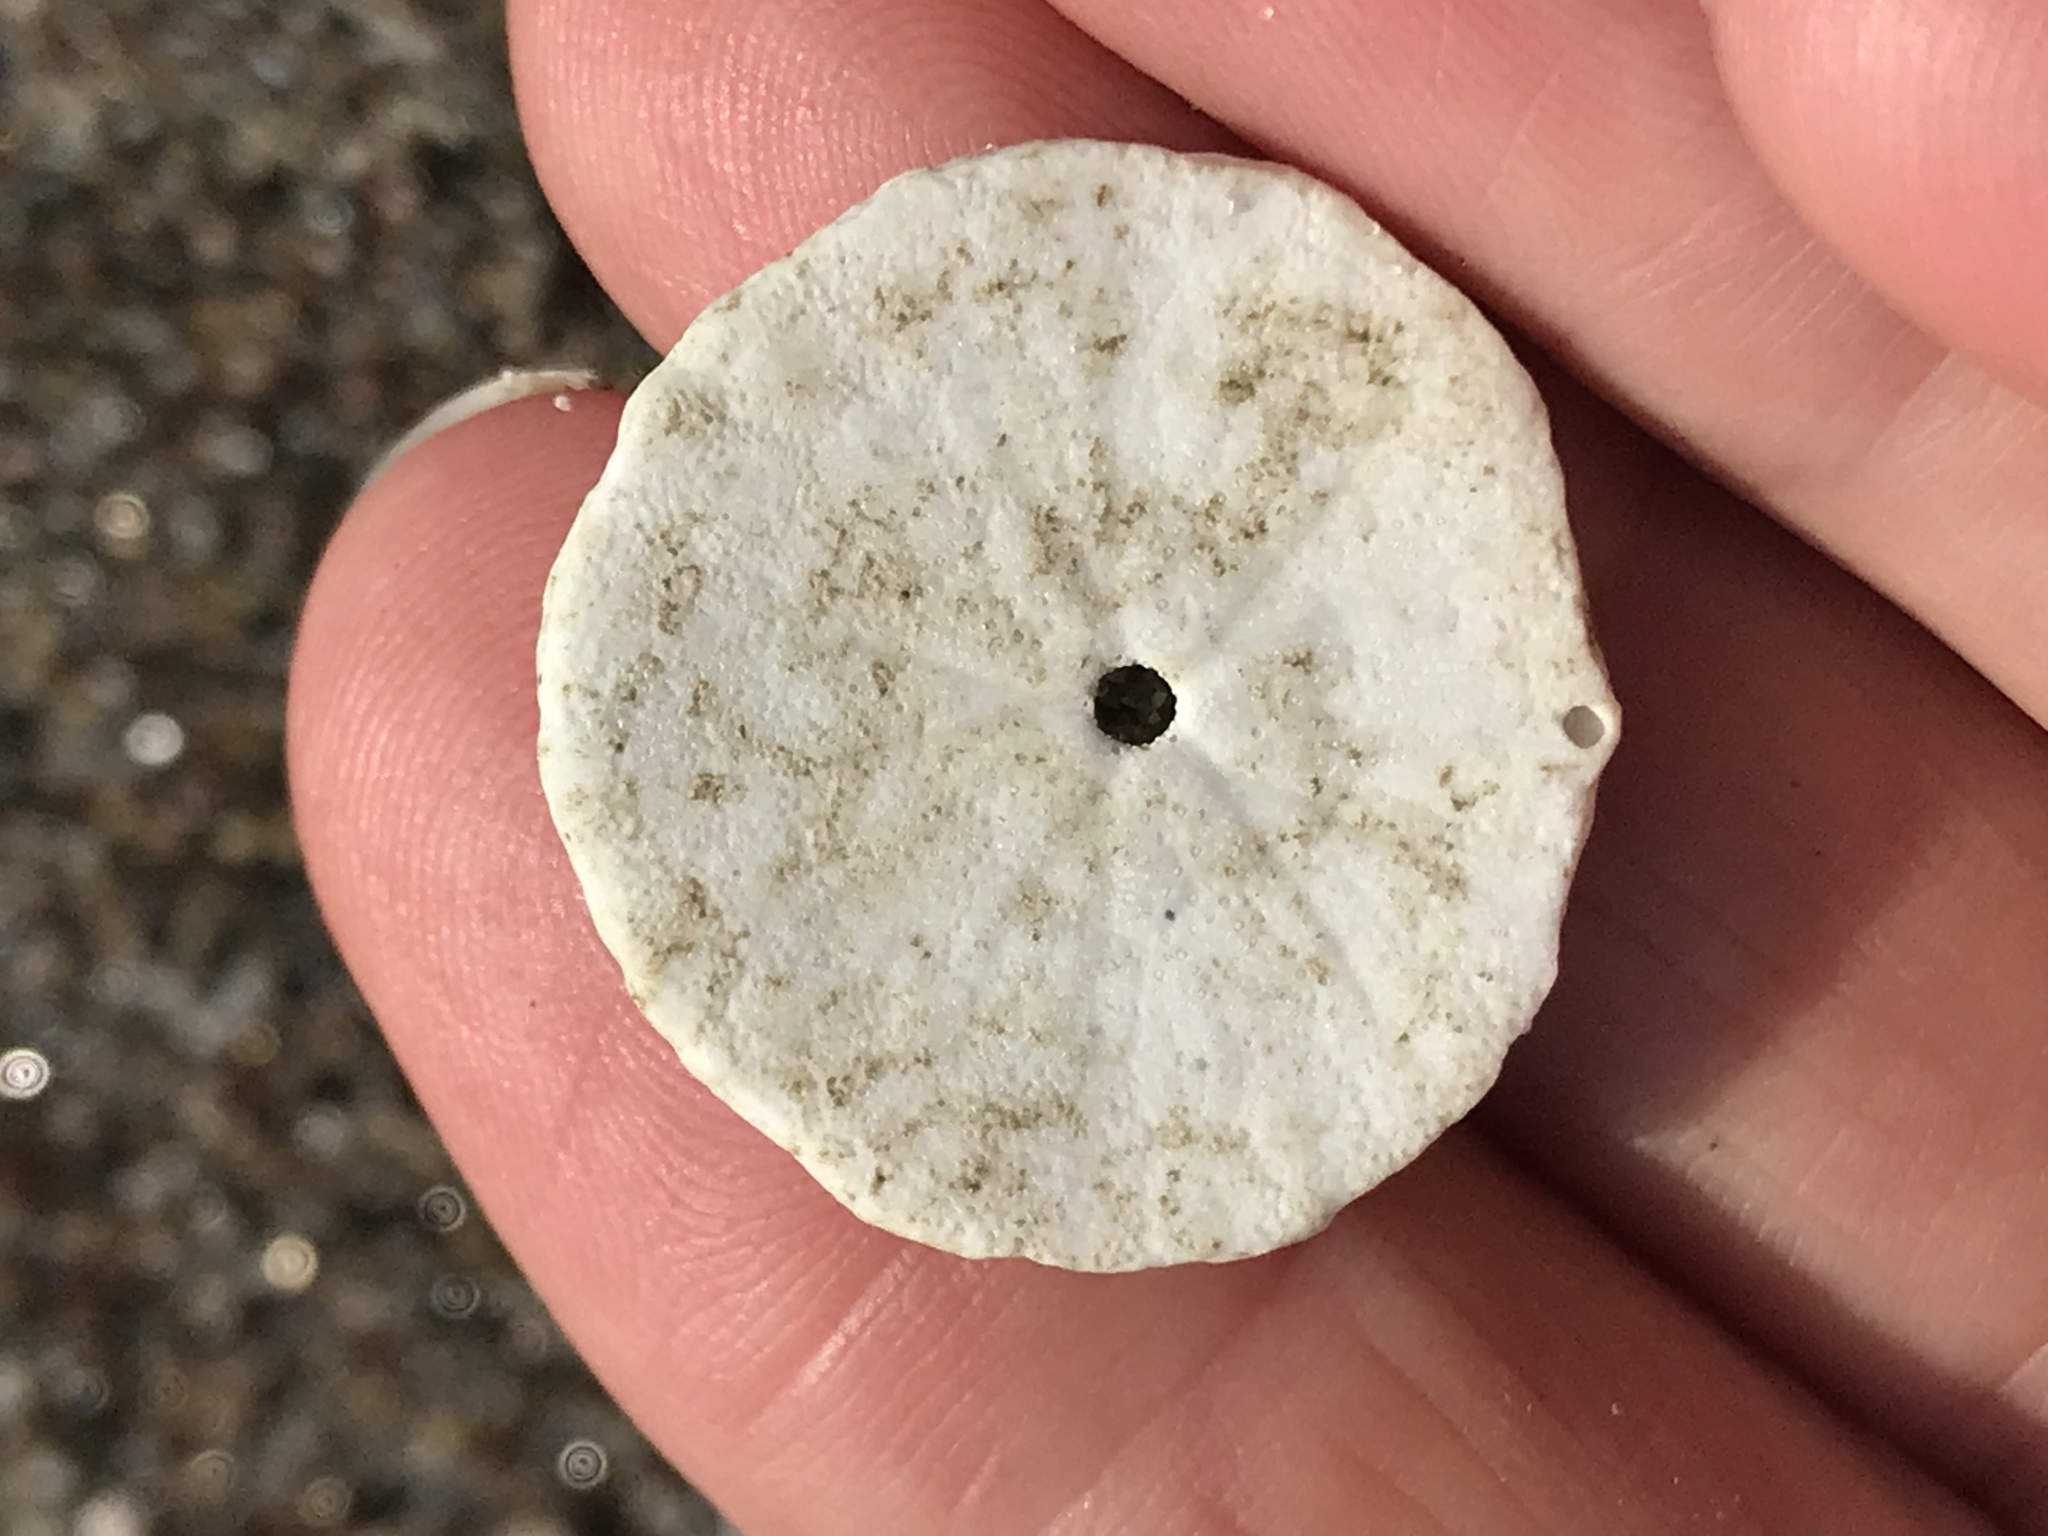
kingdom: Animalia
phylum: Echinodermata
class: Echinoidea
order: Echinolampadacea
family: Dendrasteridae
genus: Dendraster
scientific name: Dendraster excentricus
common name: Eccentric sand dollar sea urchin
